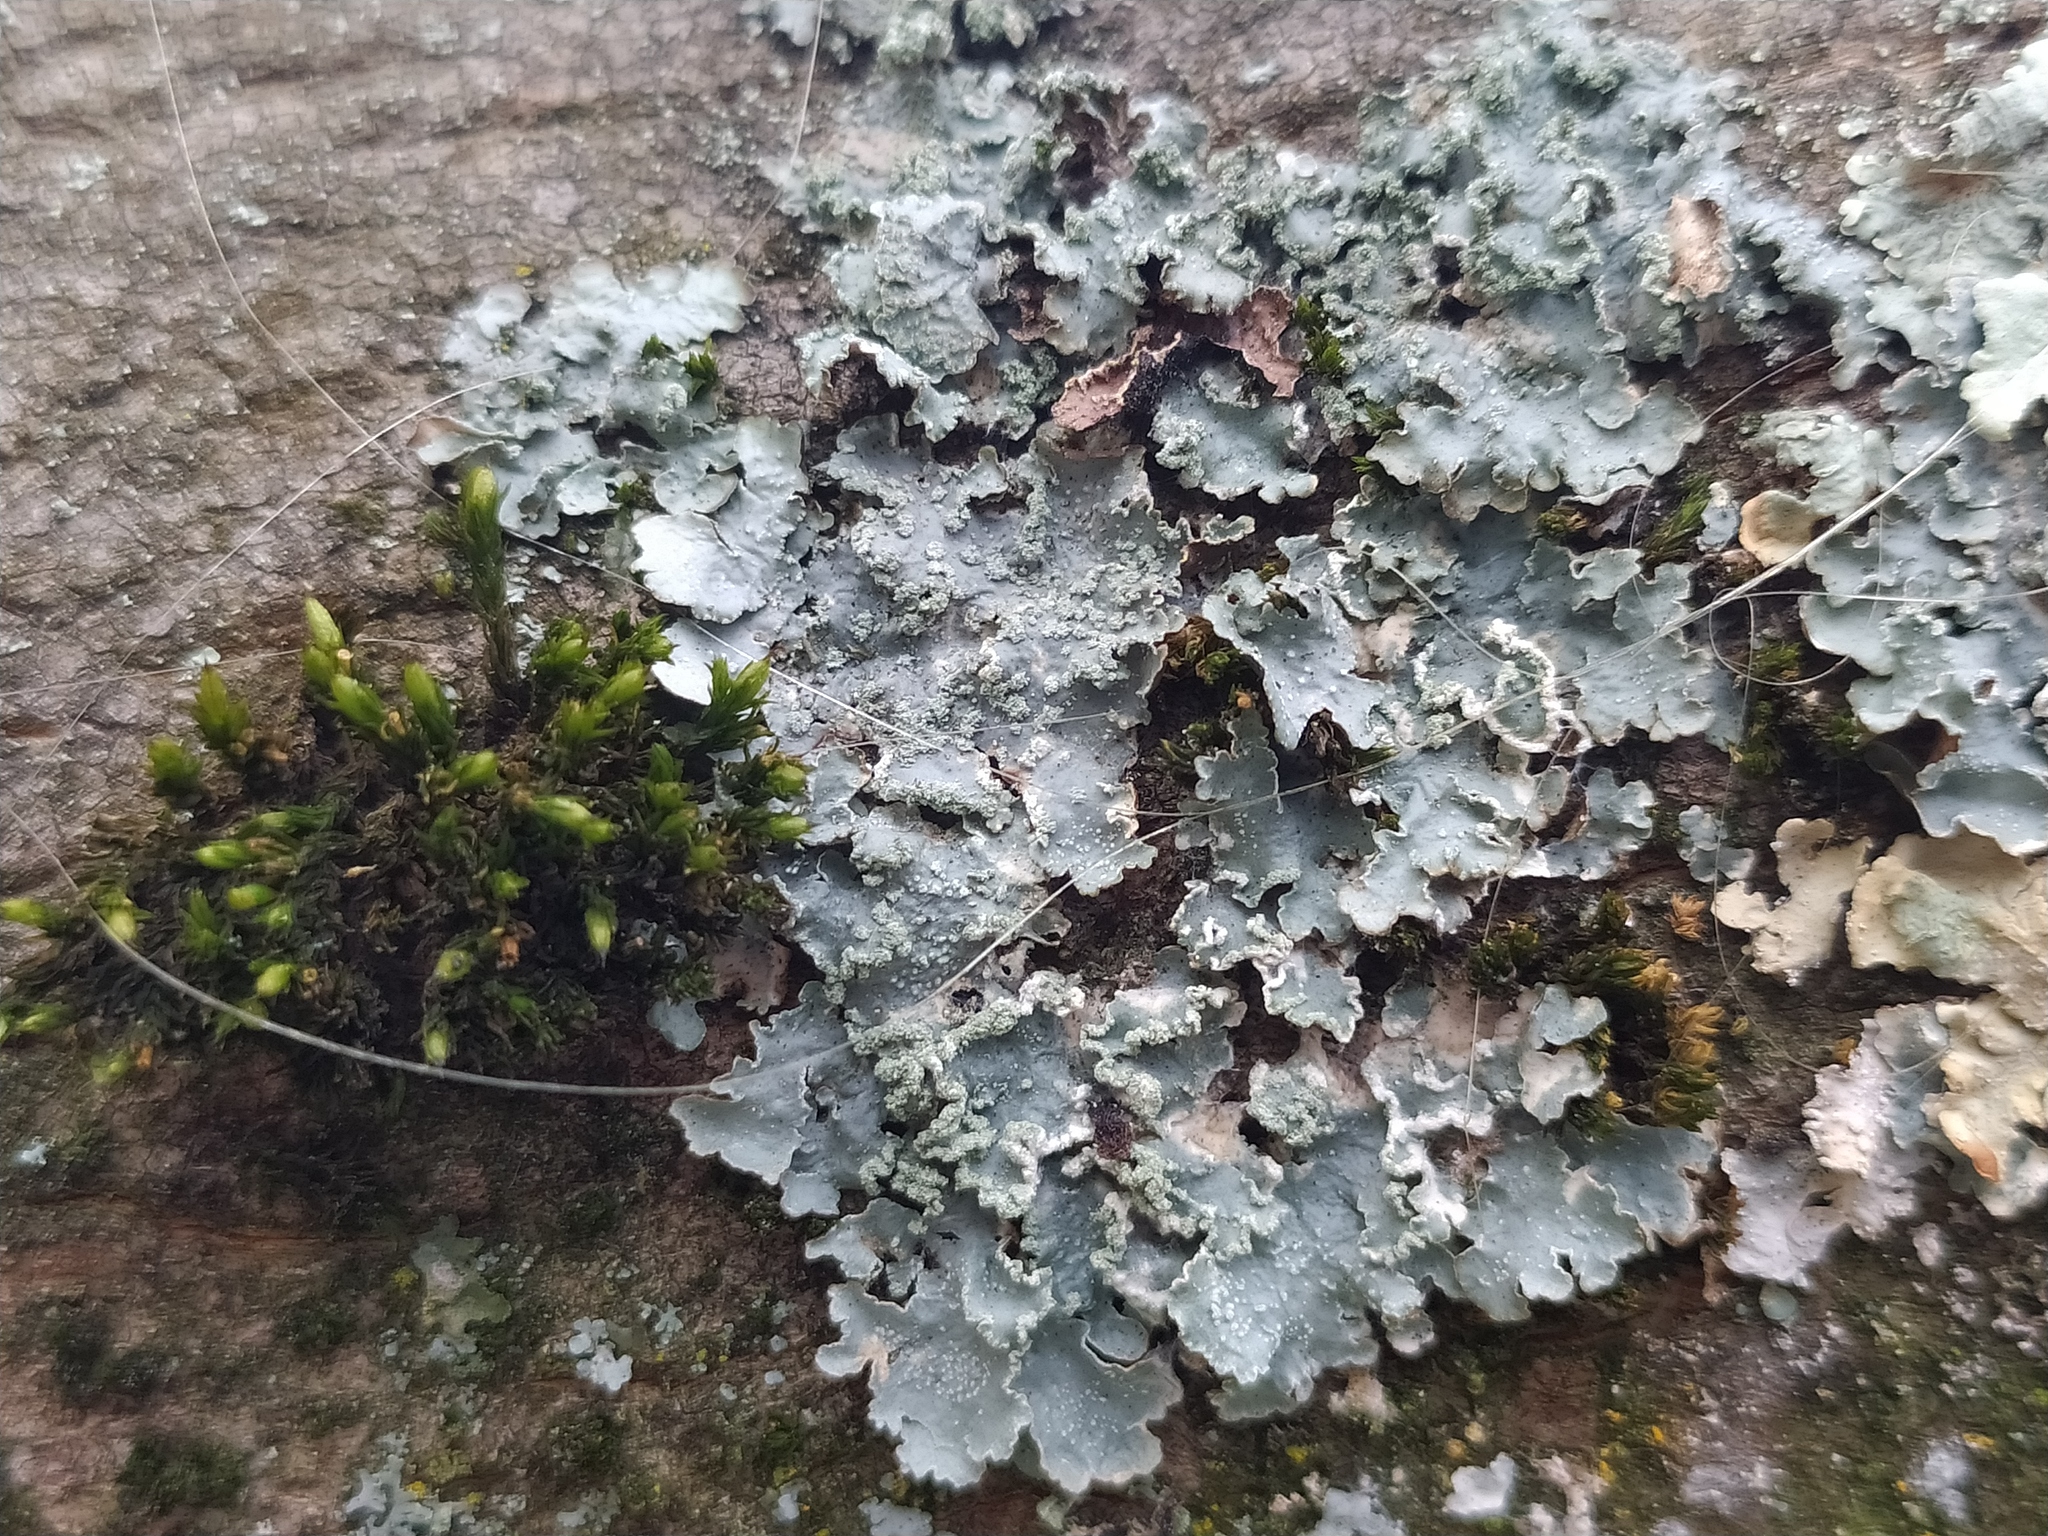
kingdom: Fungi
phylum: Ascomycota
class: Lecanoromycetes
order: Lecanorales
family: Parmeliaceae
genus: Punctelia
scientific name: Punctelia jeckeri
